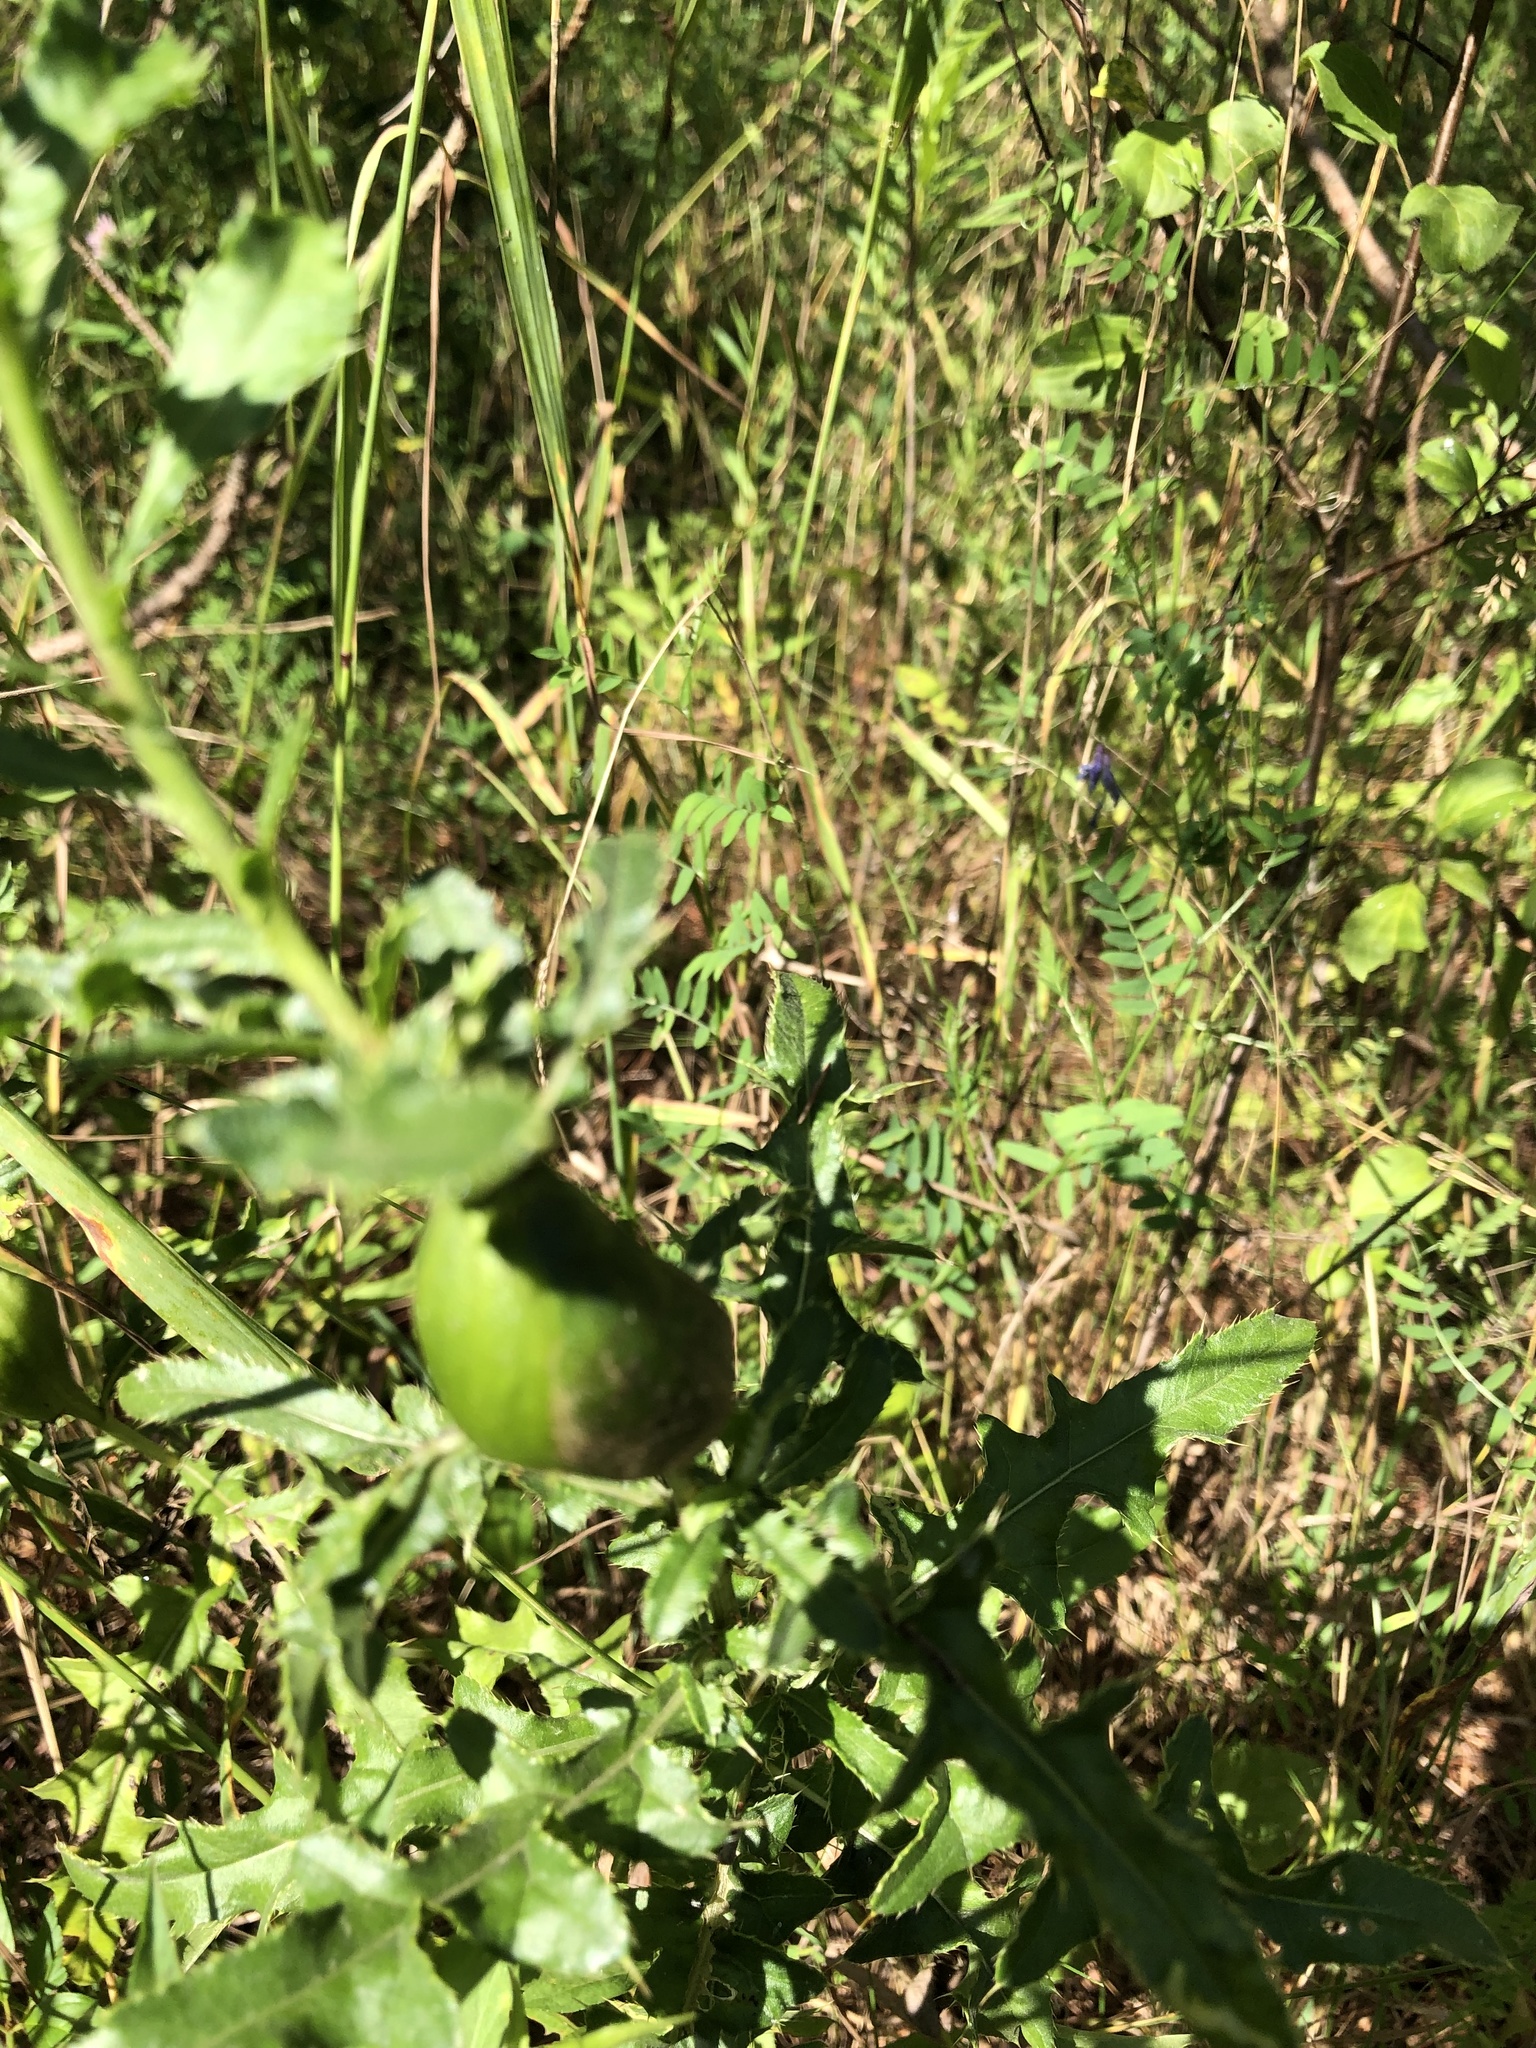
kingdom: Animalia
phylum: Arthropoda
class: Insecta
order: Diptera
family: Tephritidae
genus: Urophora
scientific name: Urophora cardui
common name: Fruit fly
